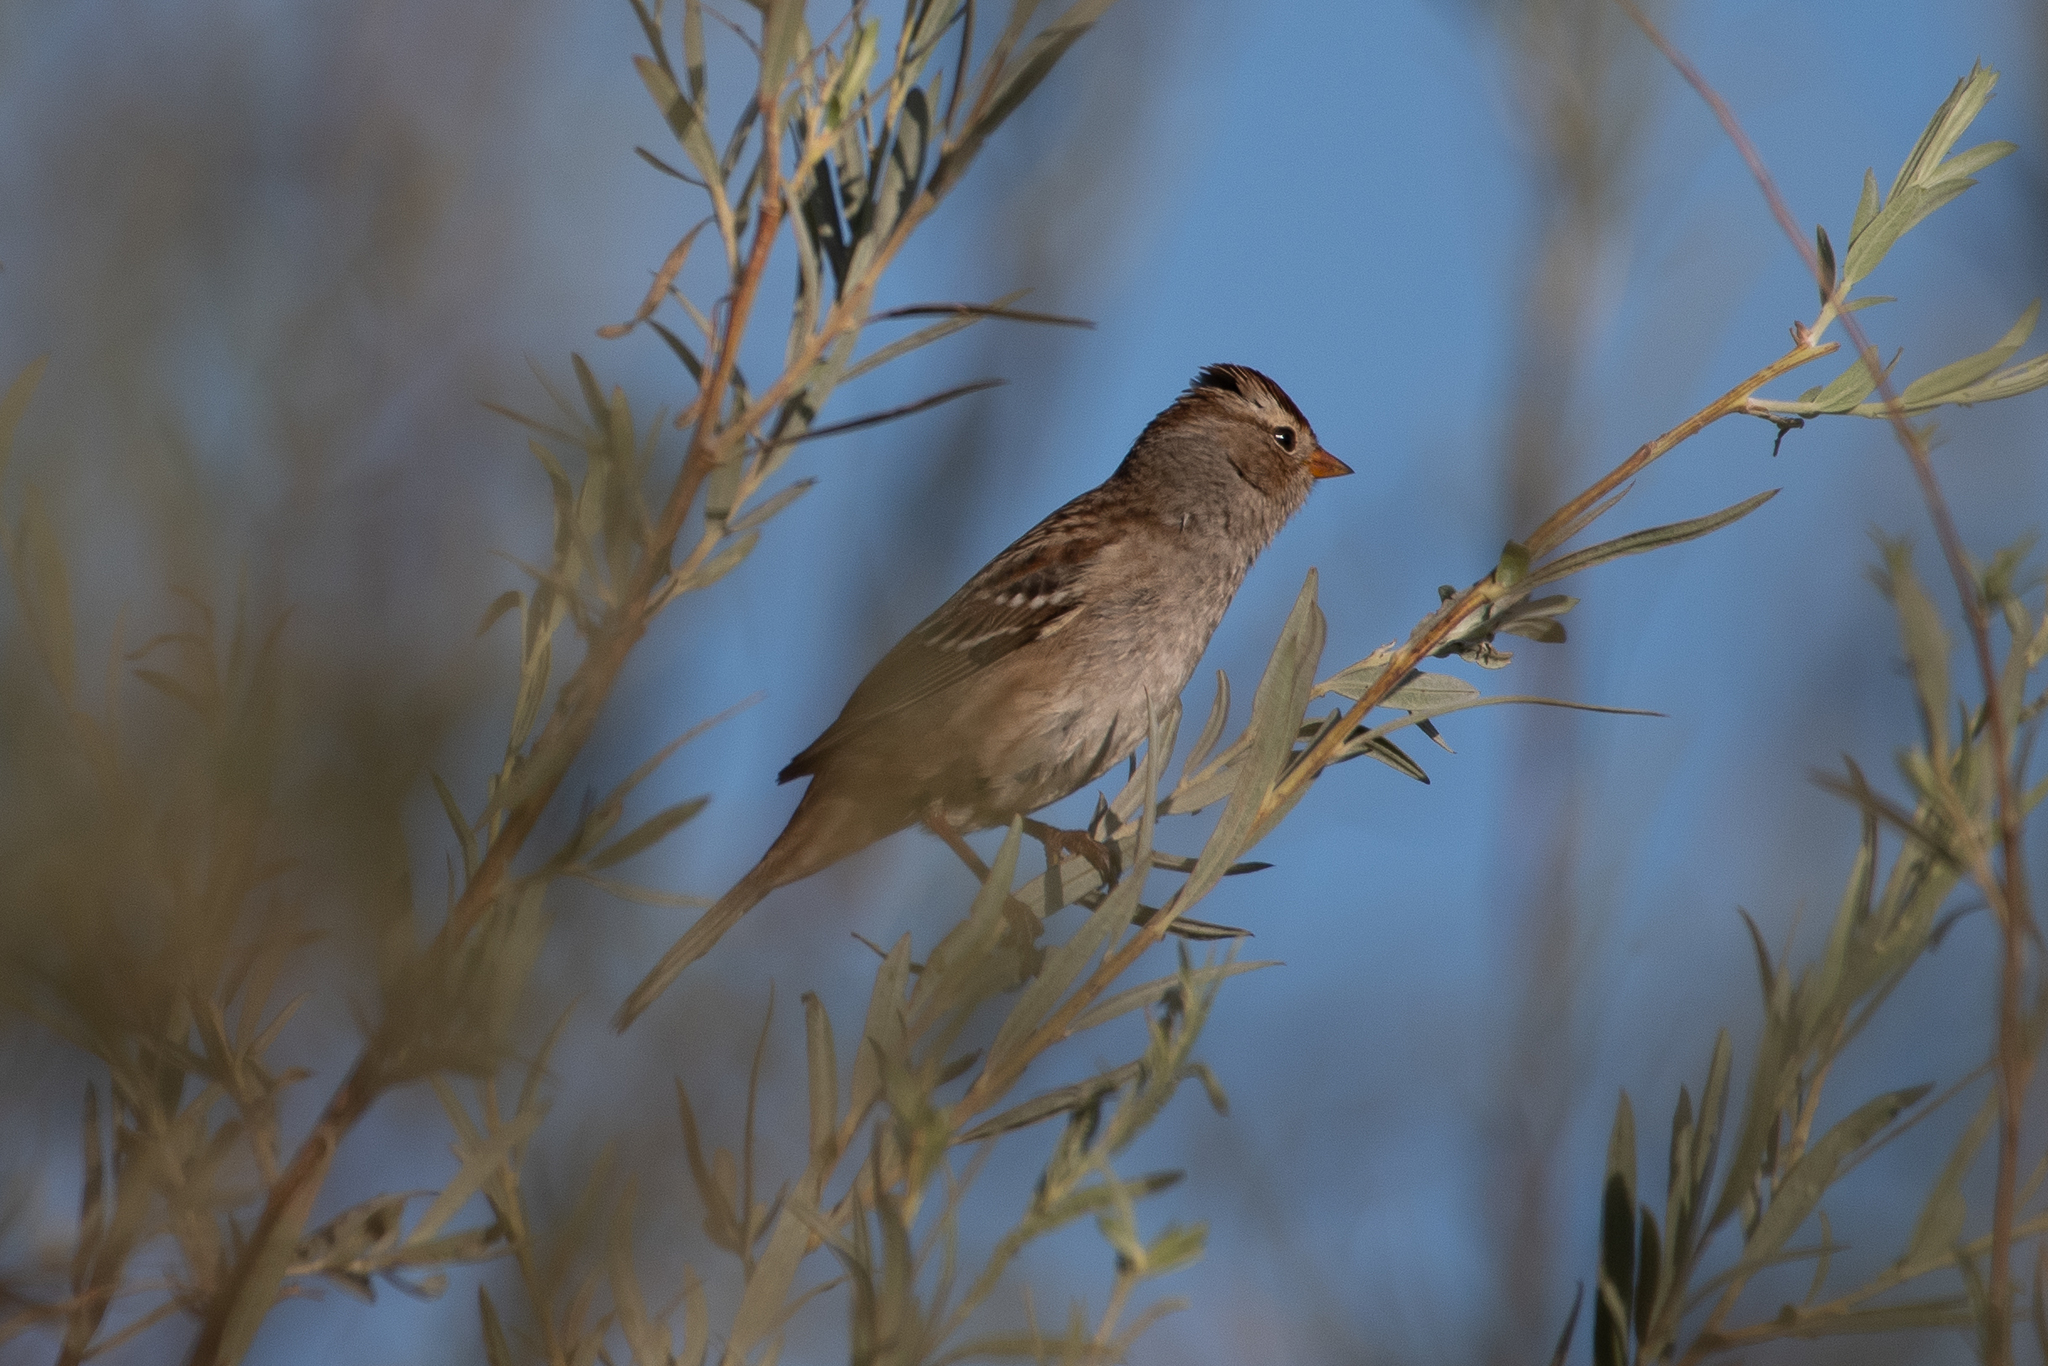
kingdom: Animalia
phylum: Chordata
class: Aves
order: Passeriformes
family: Passerellidae
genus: Zonotrichia
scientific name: Zonotrichia leucophrys
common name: White-crowned sparrow
